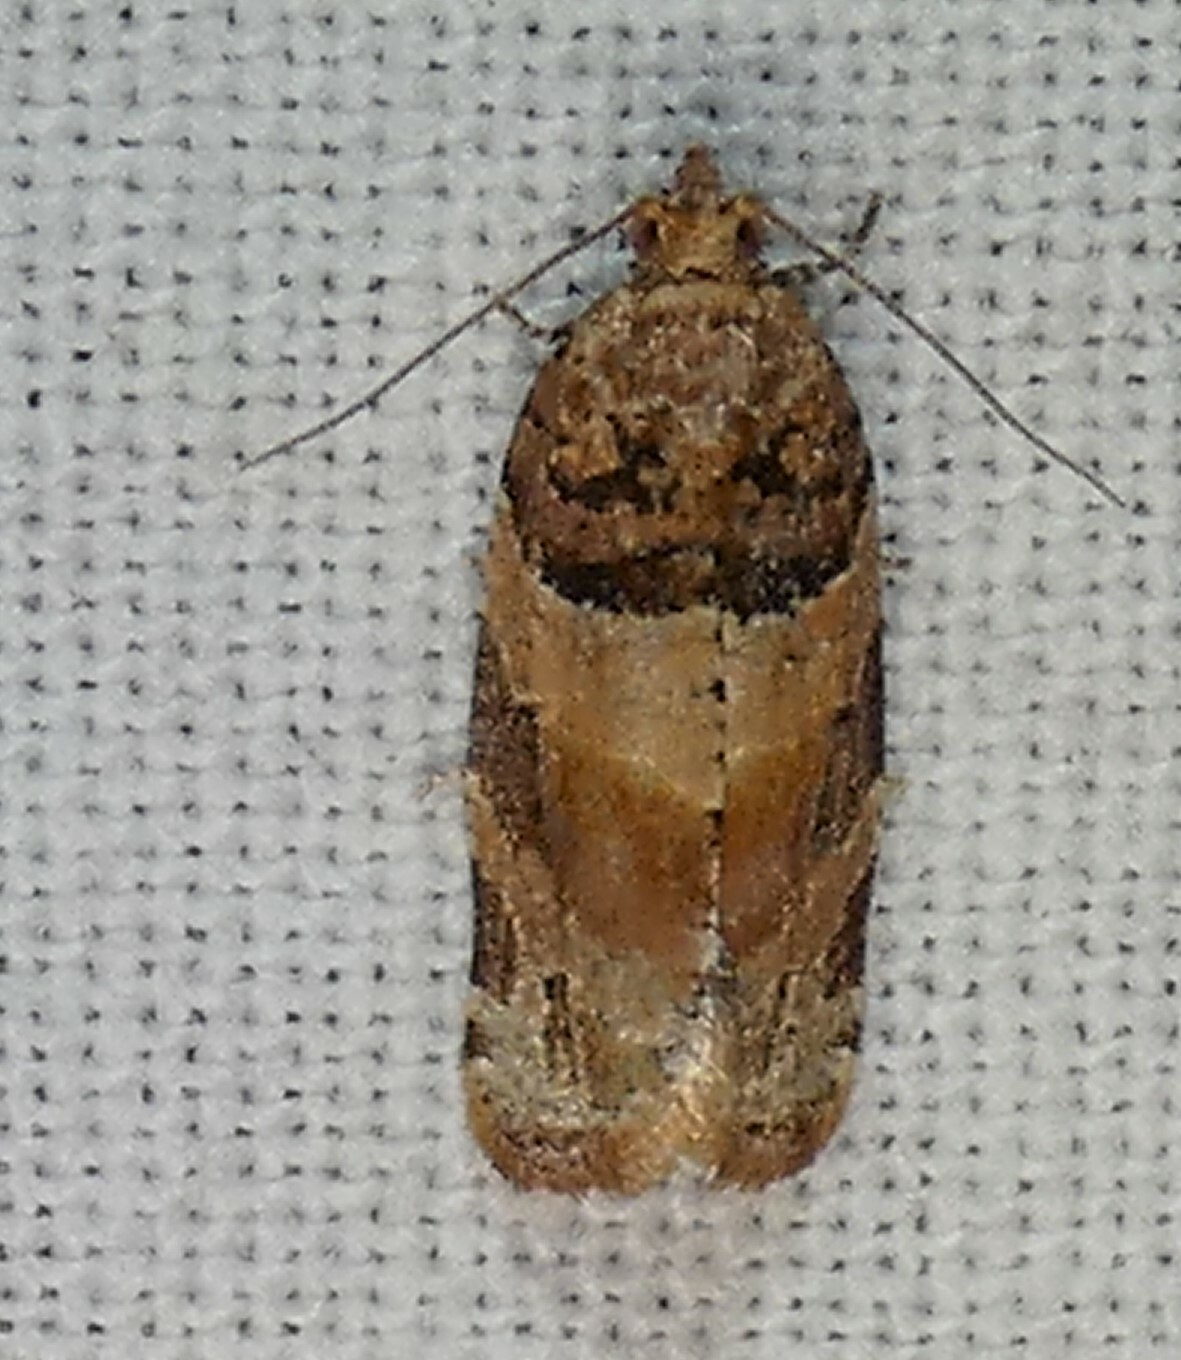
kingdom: Animalia
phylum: Arthropoda
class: Insecta
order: Lepidoptera
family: Tortricidae
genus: Argyrotaenia
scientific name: Argyrotaenia kimballi
